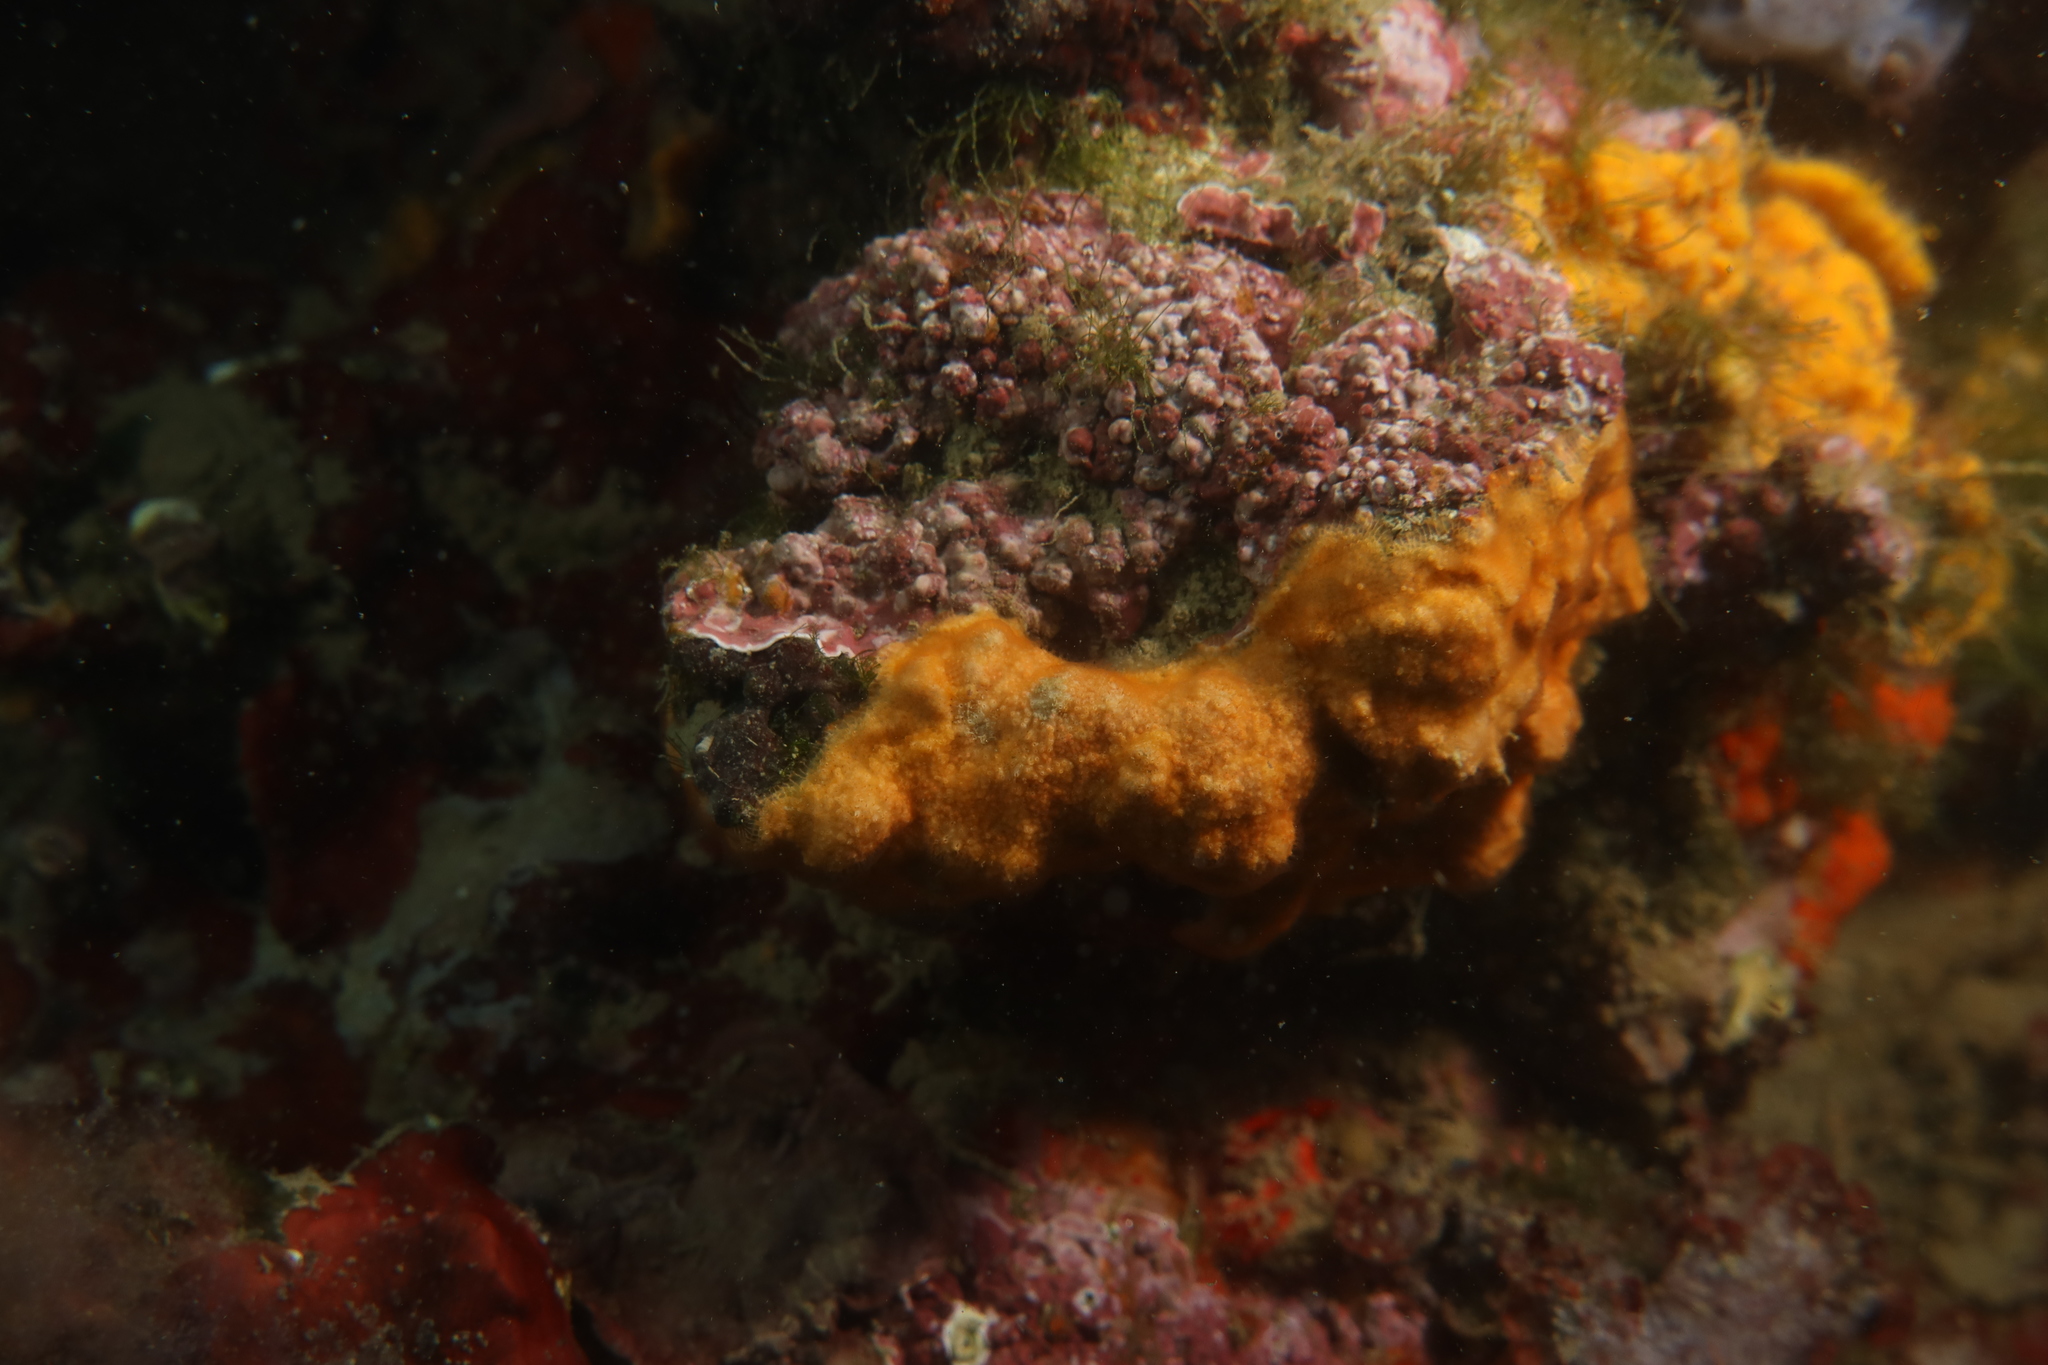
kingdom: Animalia
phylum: Bryozoa
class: Gymnolaemata
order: Cheilostomatida
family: Smittinidae
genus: Parasmittina
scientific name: Parasmittina rouvillei
